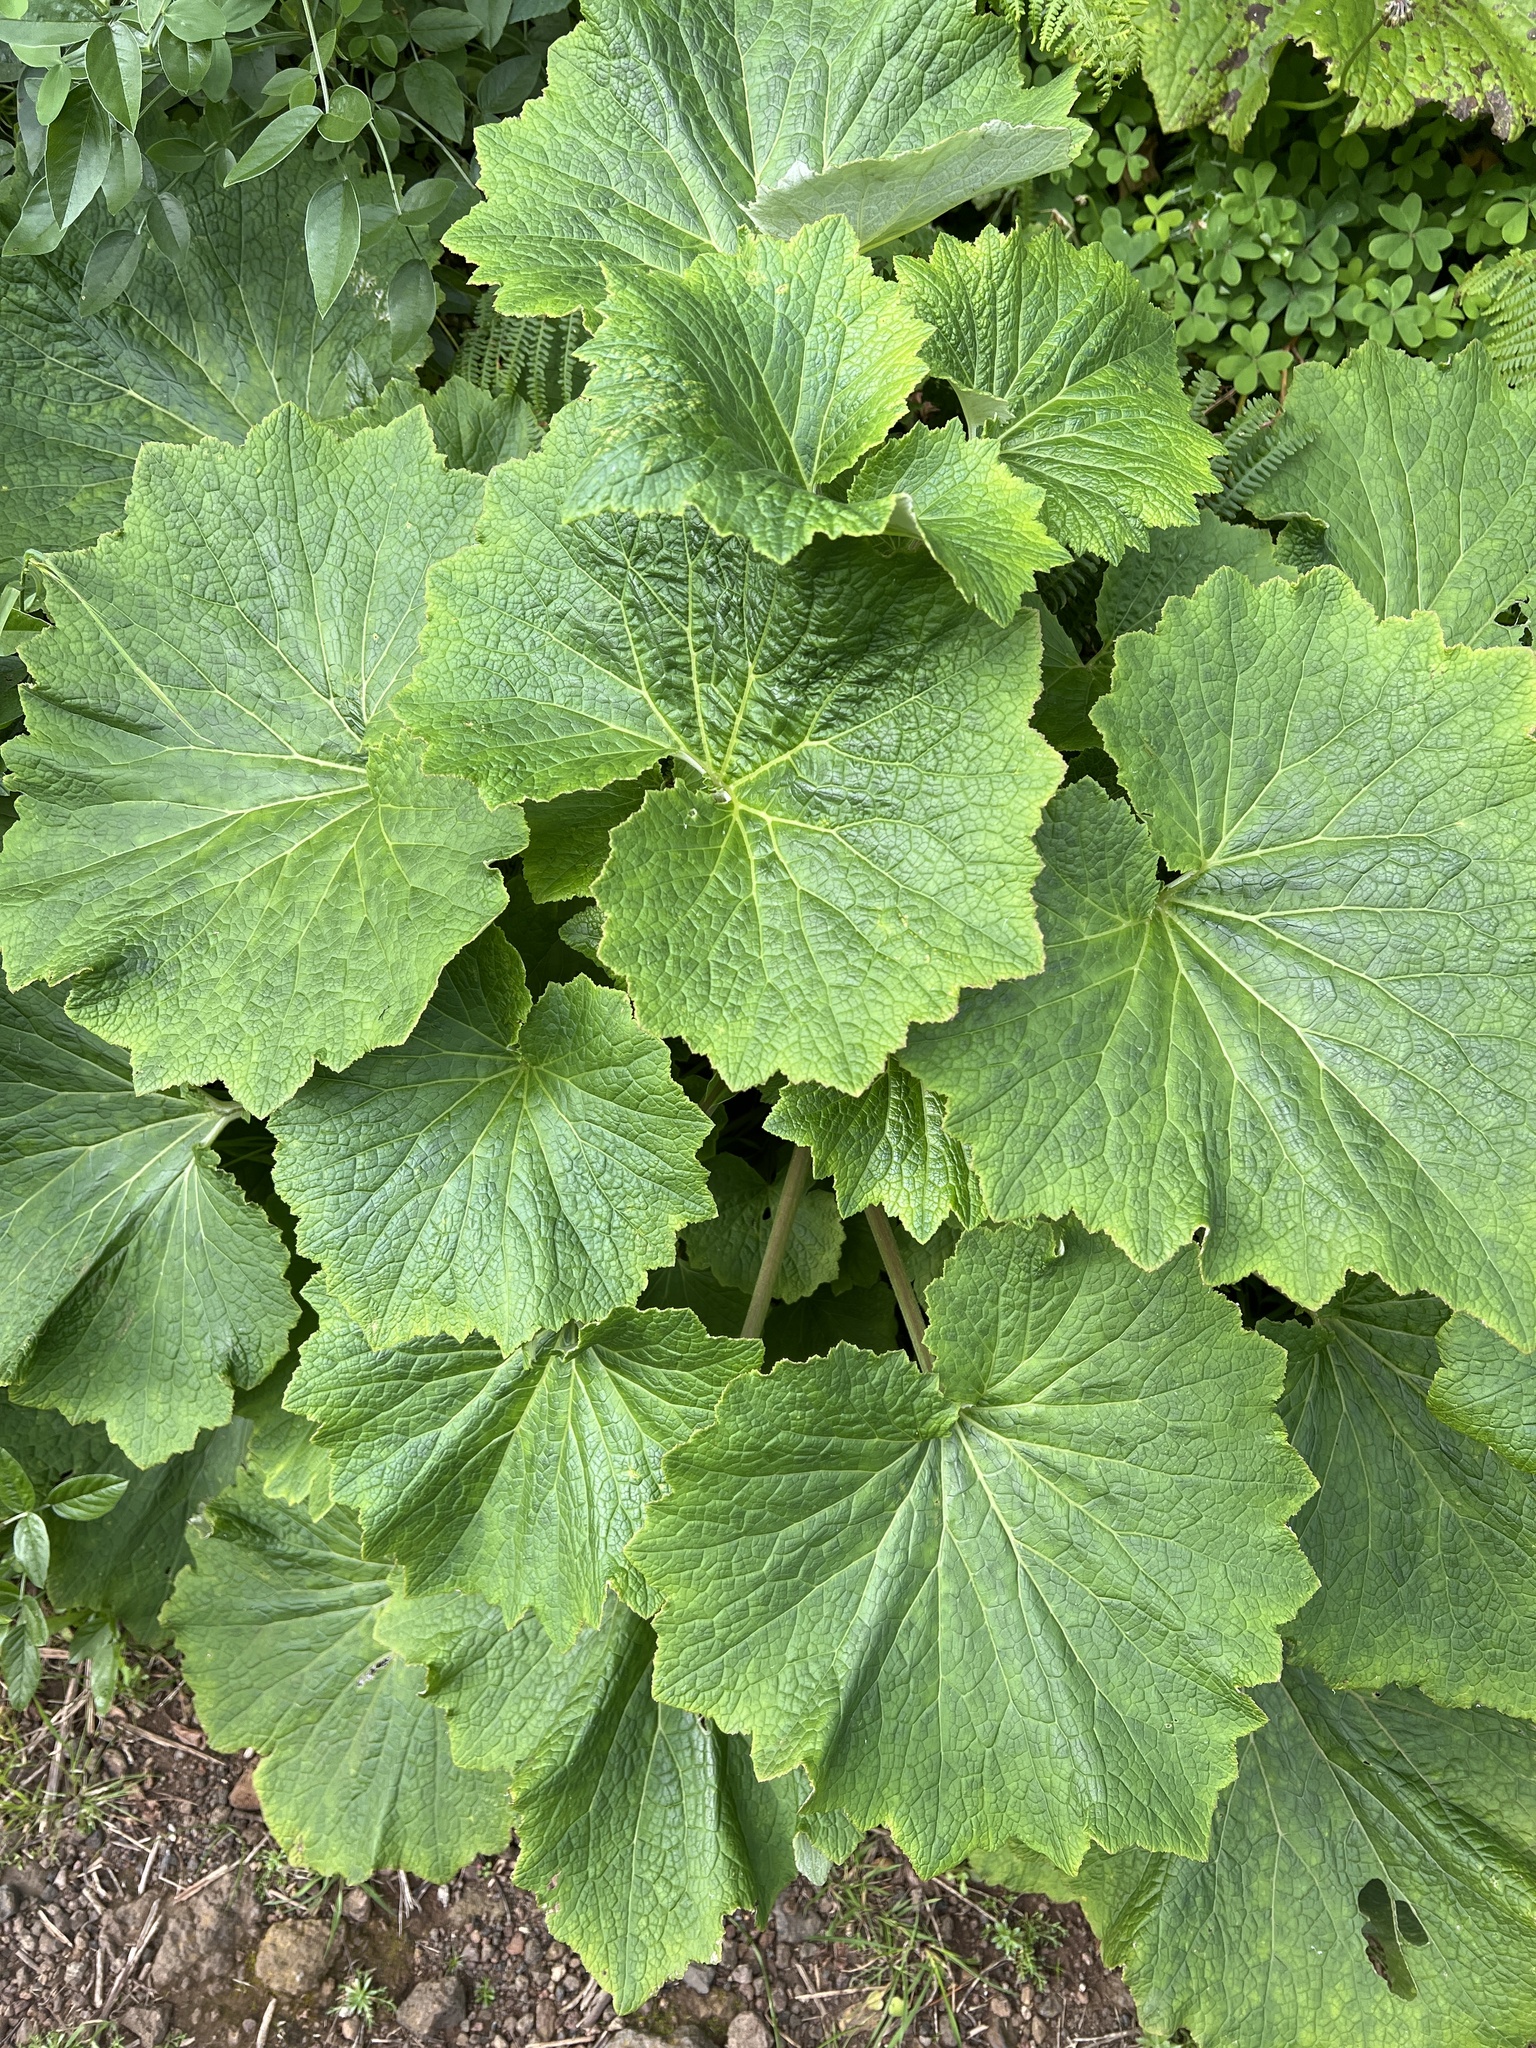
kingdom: Plantae
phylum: Tracheophyta
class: Magnoliopsida
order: Ranunculales
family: Ranunculaceae
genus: Ranunculus
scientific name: Ranunculus cortusifolius
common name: Azores buttercup
